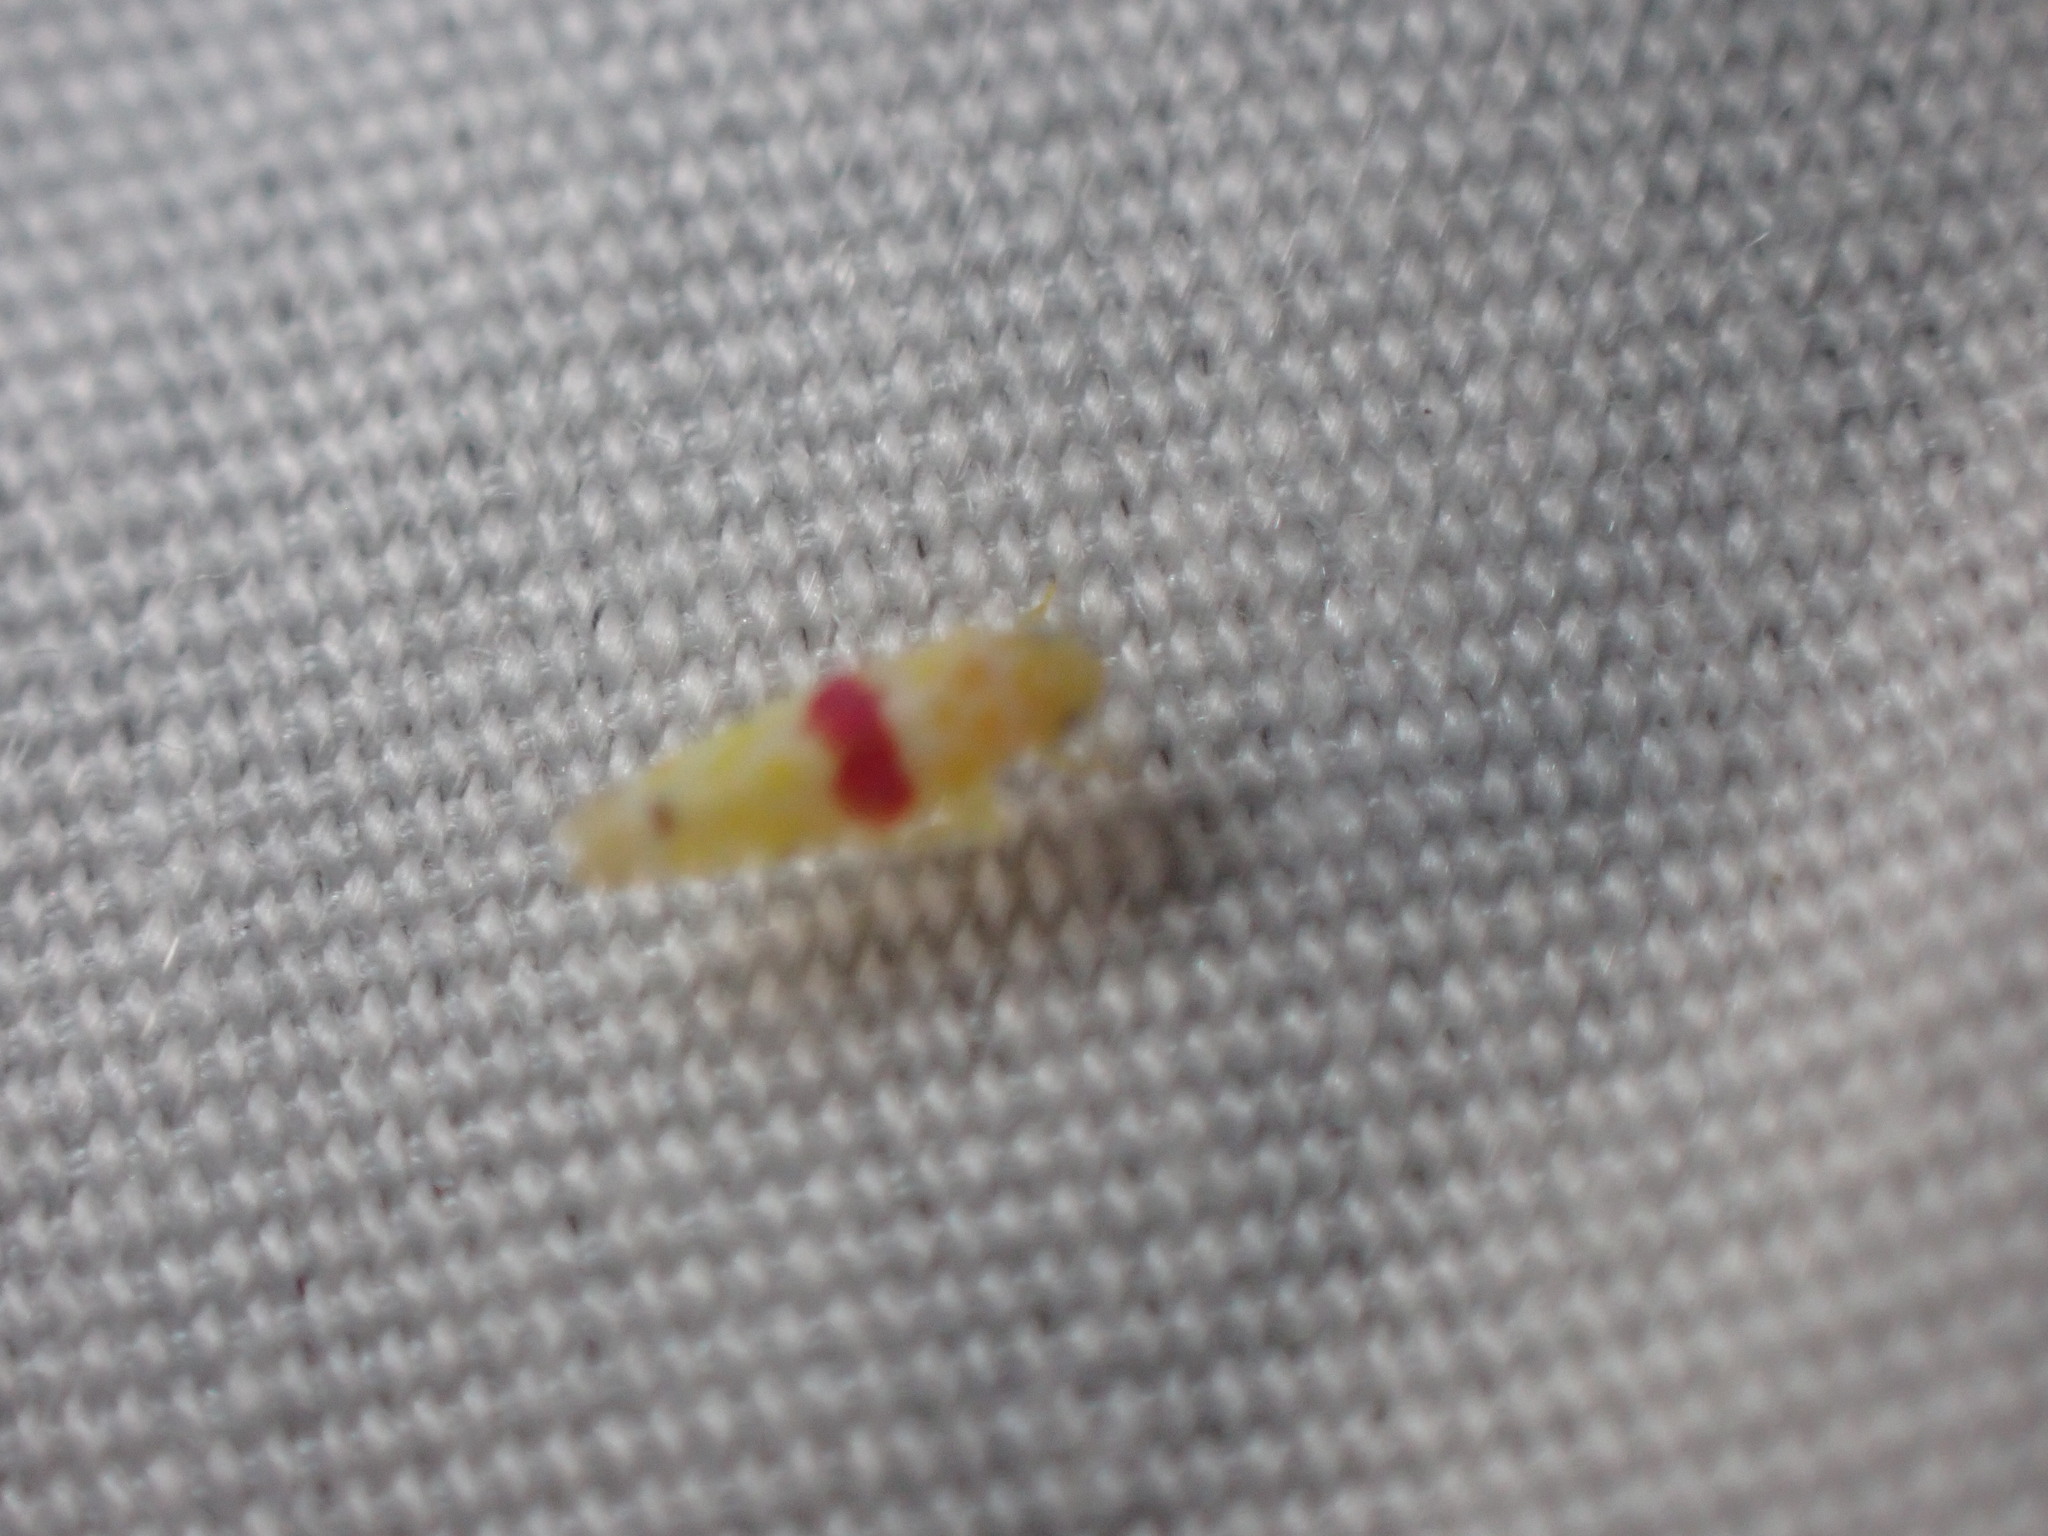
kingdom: Animalia
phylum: Arthropoda
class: Insecta
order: Hemiptera
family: Cicadellidae
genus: Eratoneura
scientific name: Eratoneura era
